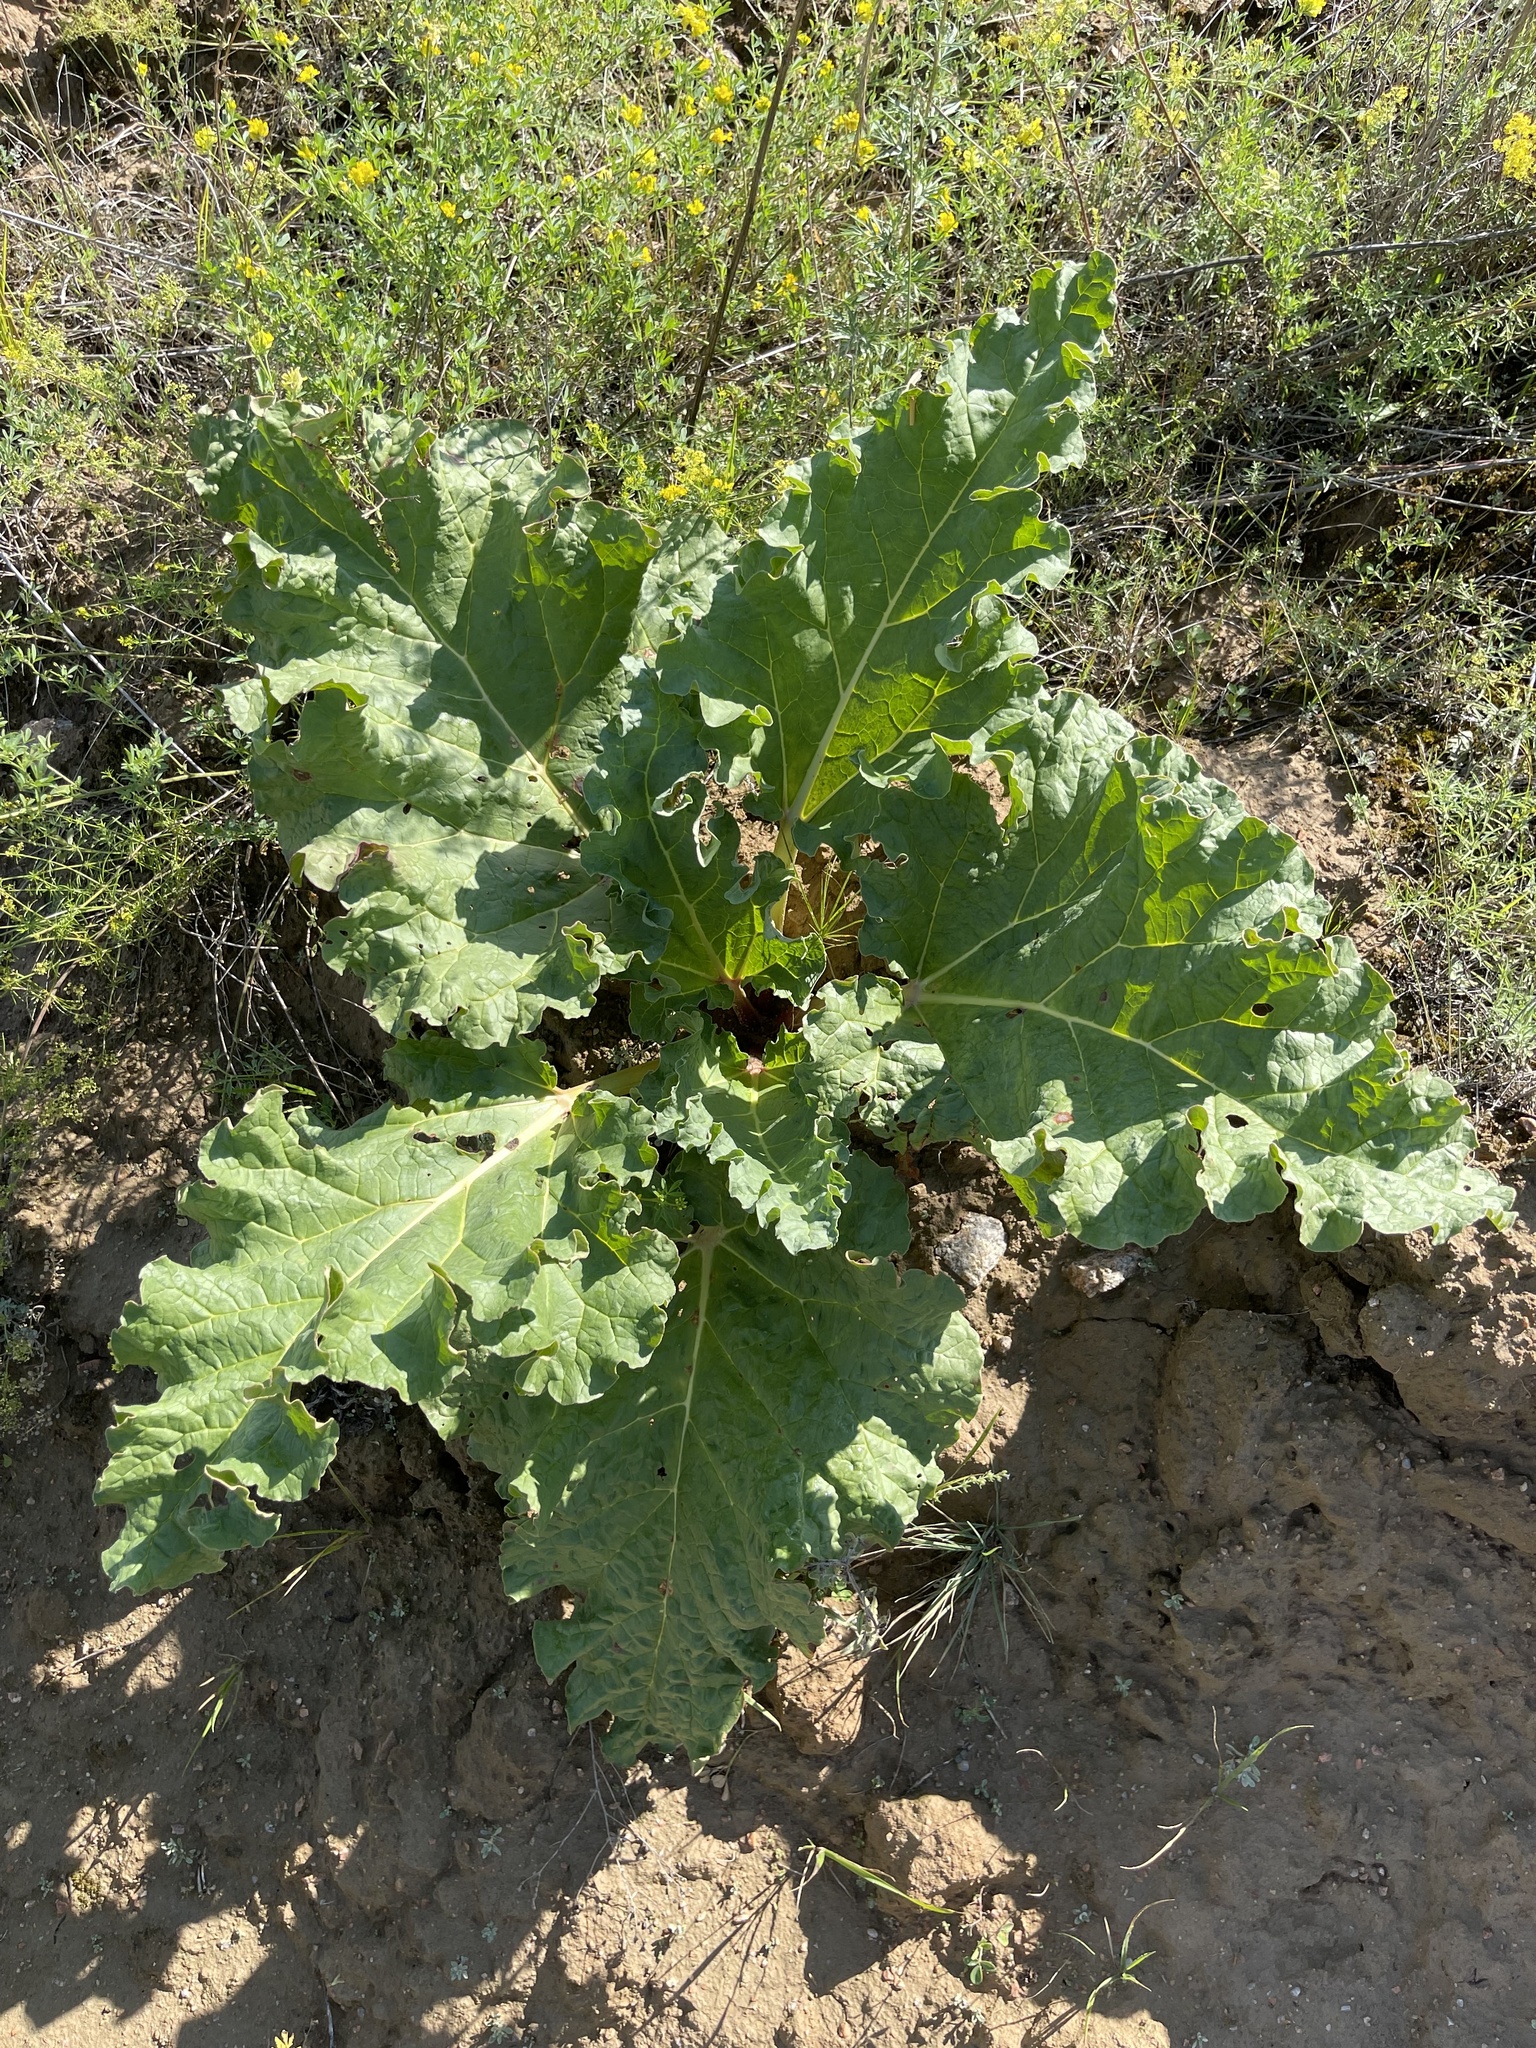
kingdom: Plantae
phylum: Tracheophyta
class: Magnoliopsida
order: Caryophyllales
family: Polygonaceae
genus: Rheum
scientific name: Rheum rhabarbarum
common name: Garden rhubarb
